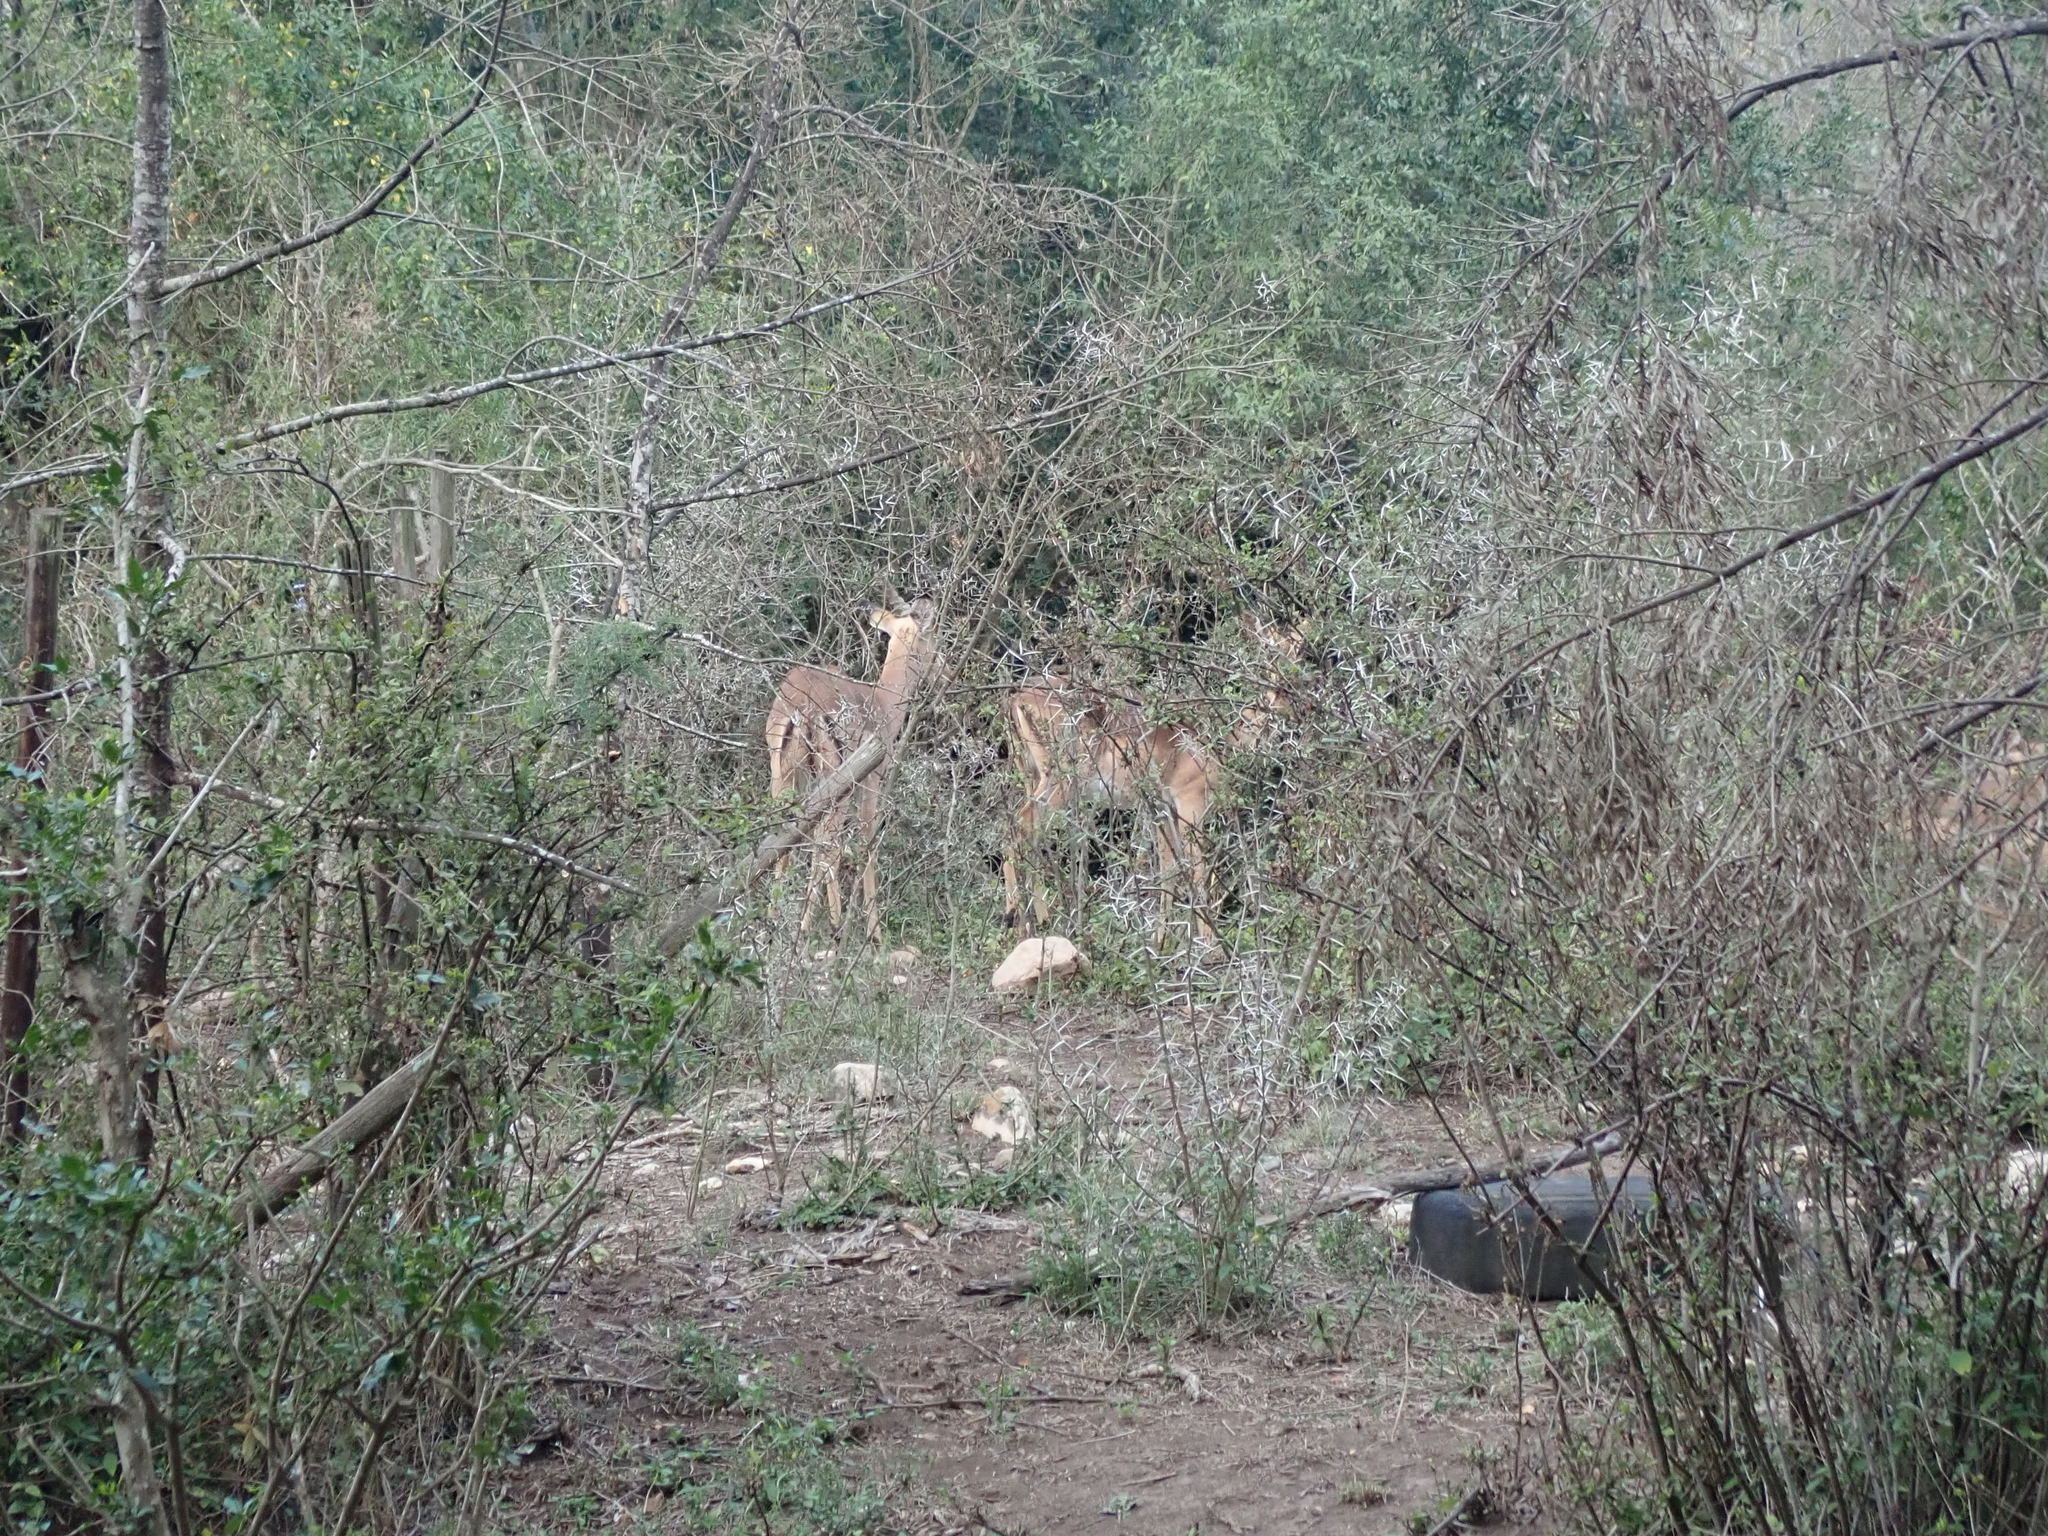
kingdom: Animalia
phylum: Chordata
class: Mammalia
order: Artiodactyla
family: Bovidae
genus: Aepyceros
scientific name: Aepyceros melampus
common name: Impala
